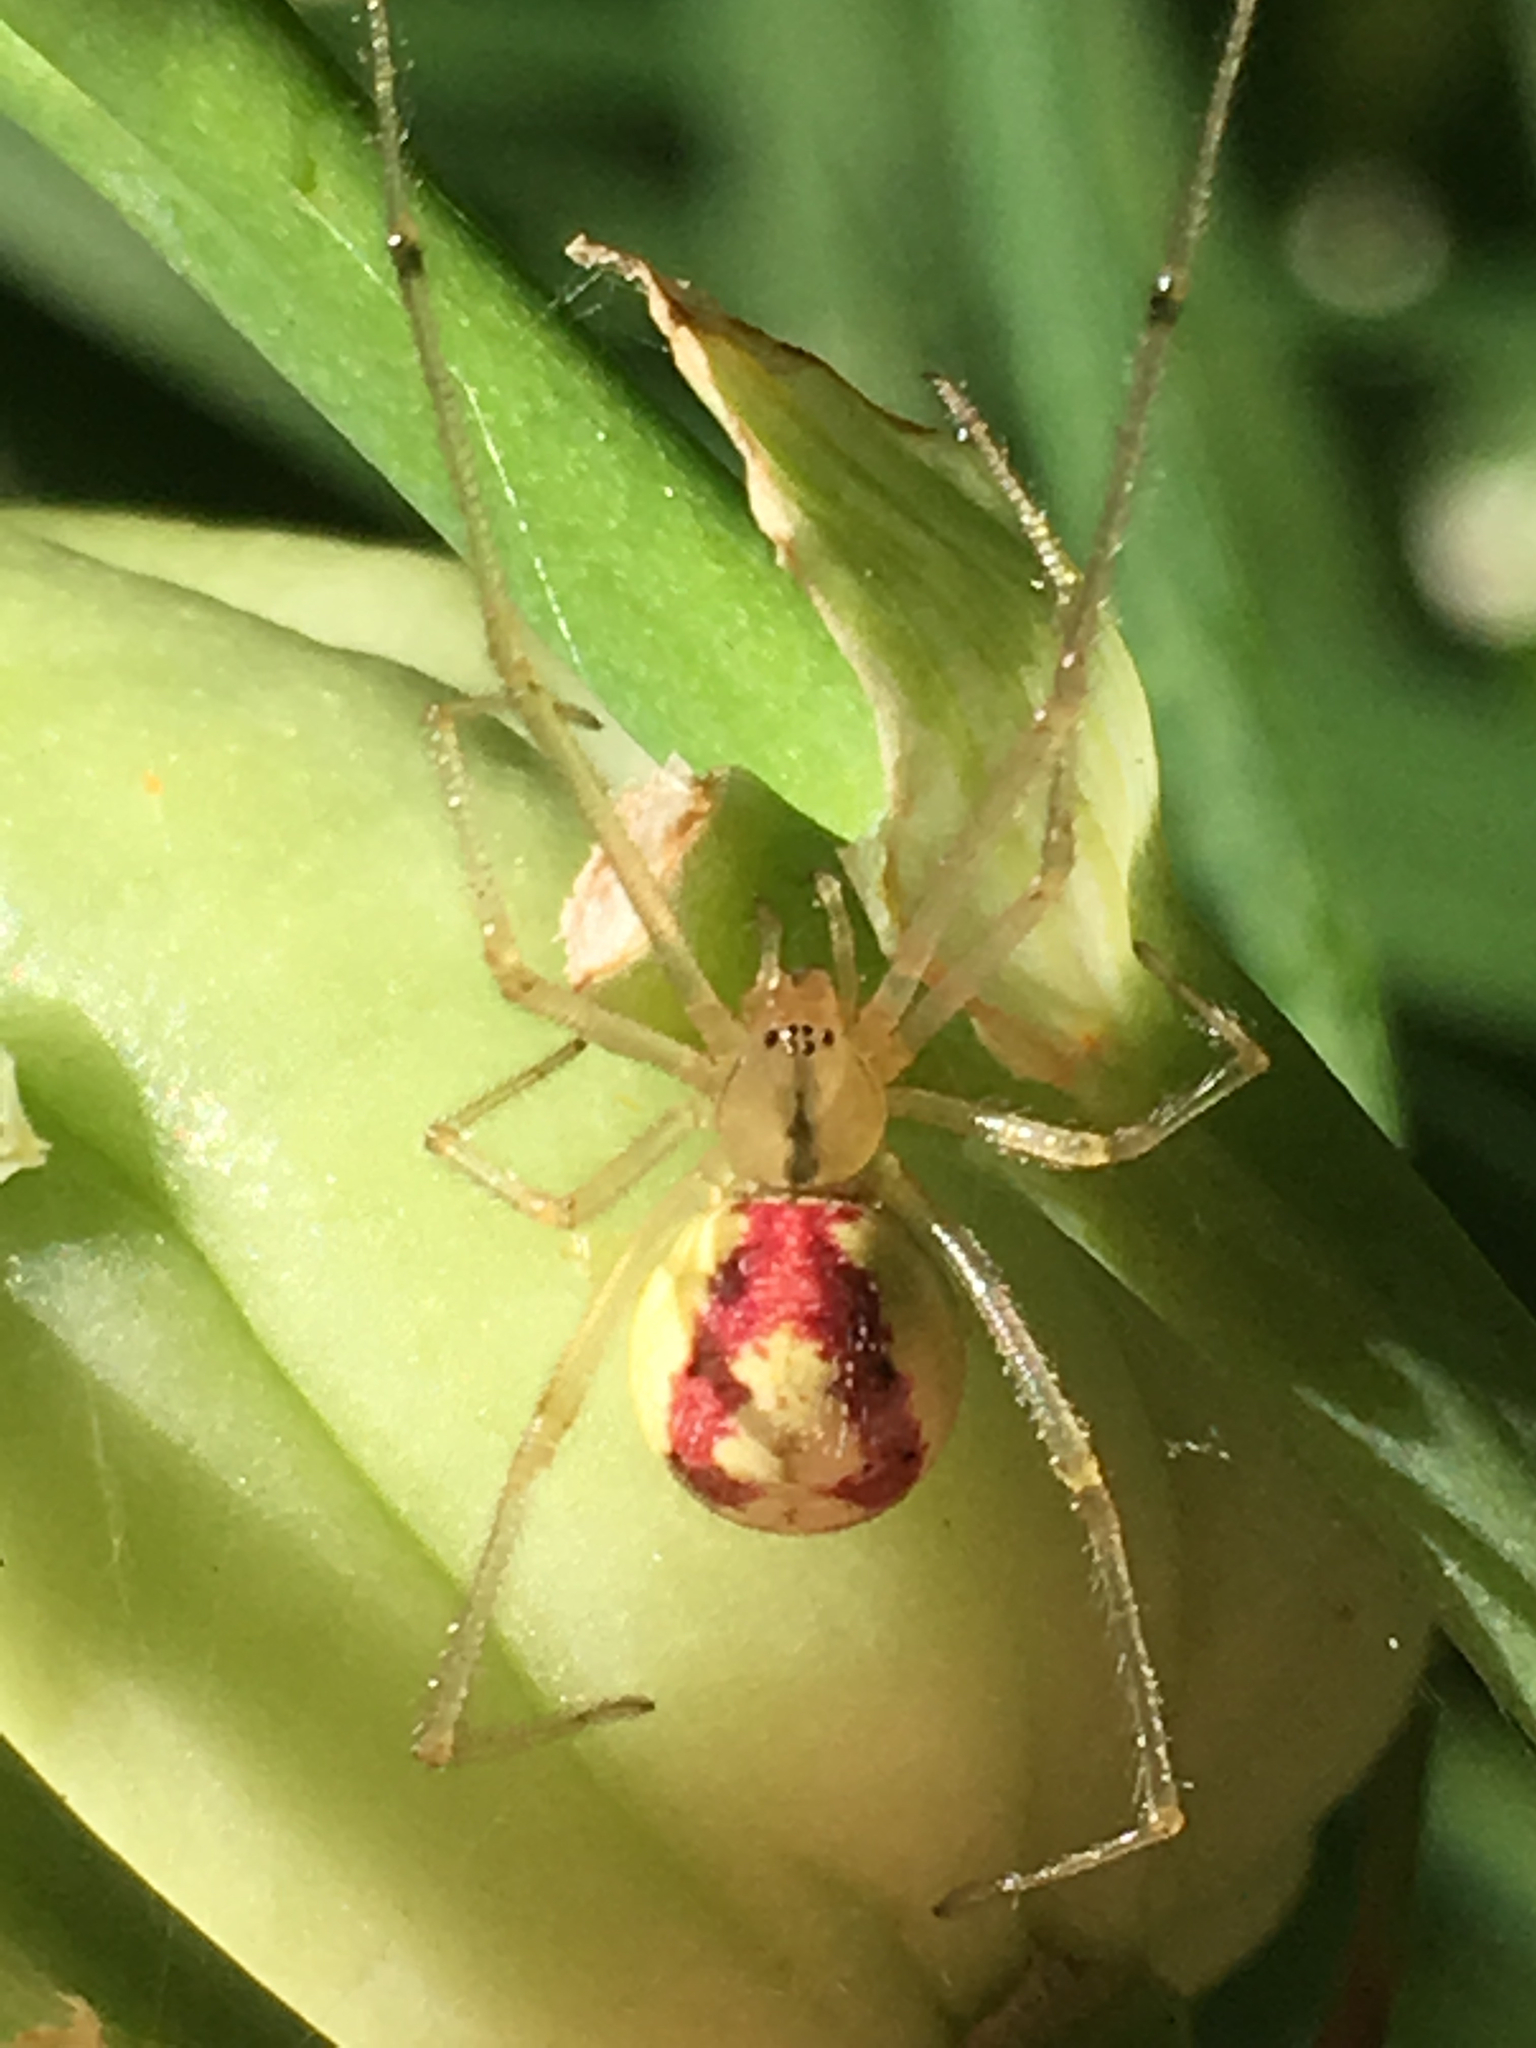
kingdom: Animalia
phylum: Arthropoda
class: Arachnida
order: Araneae
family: Theridiidae
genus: Enoplognatha
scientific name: Enoplognatha ovata
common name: Common candy-striped spider
